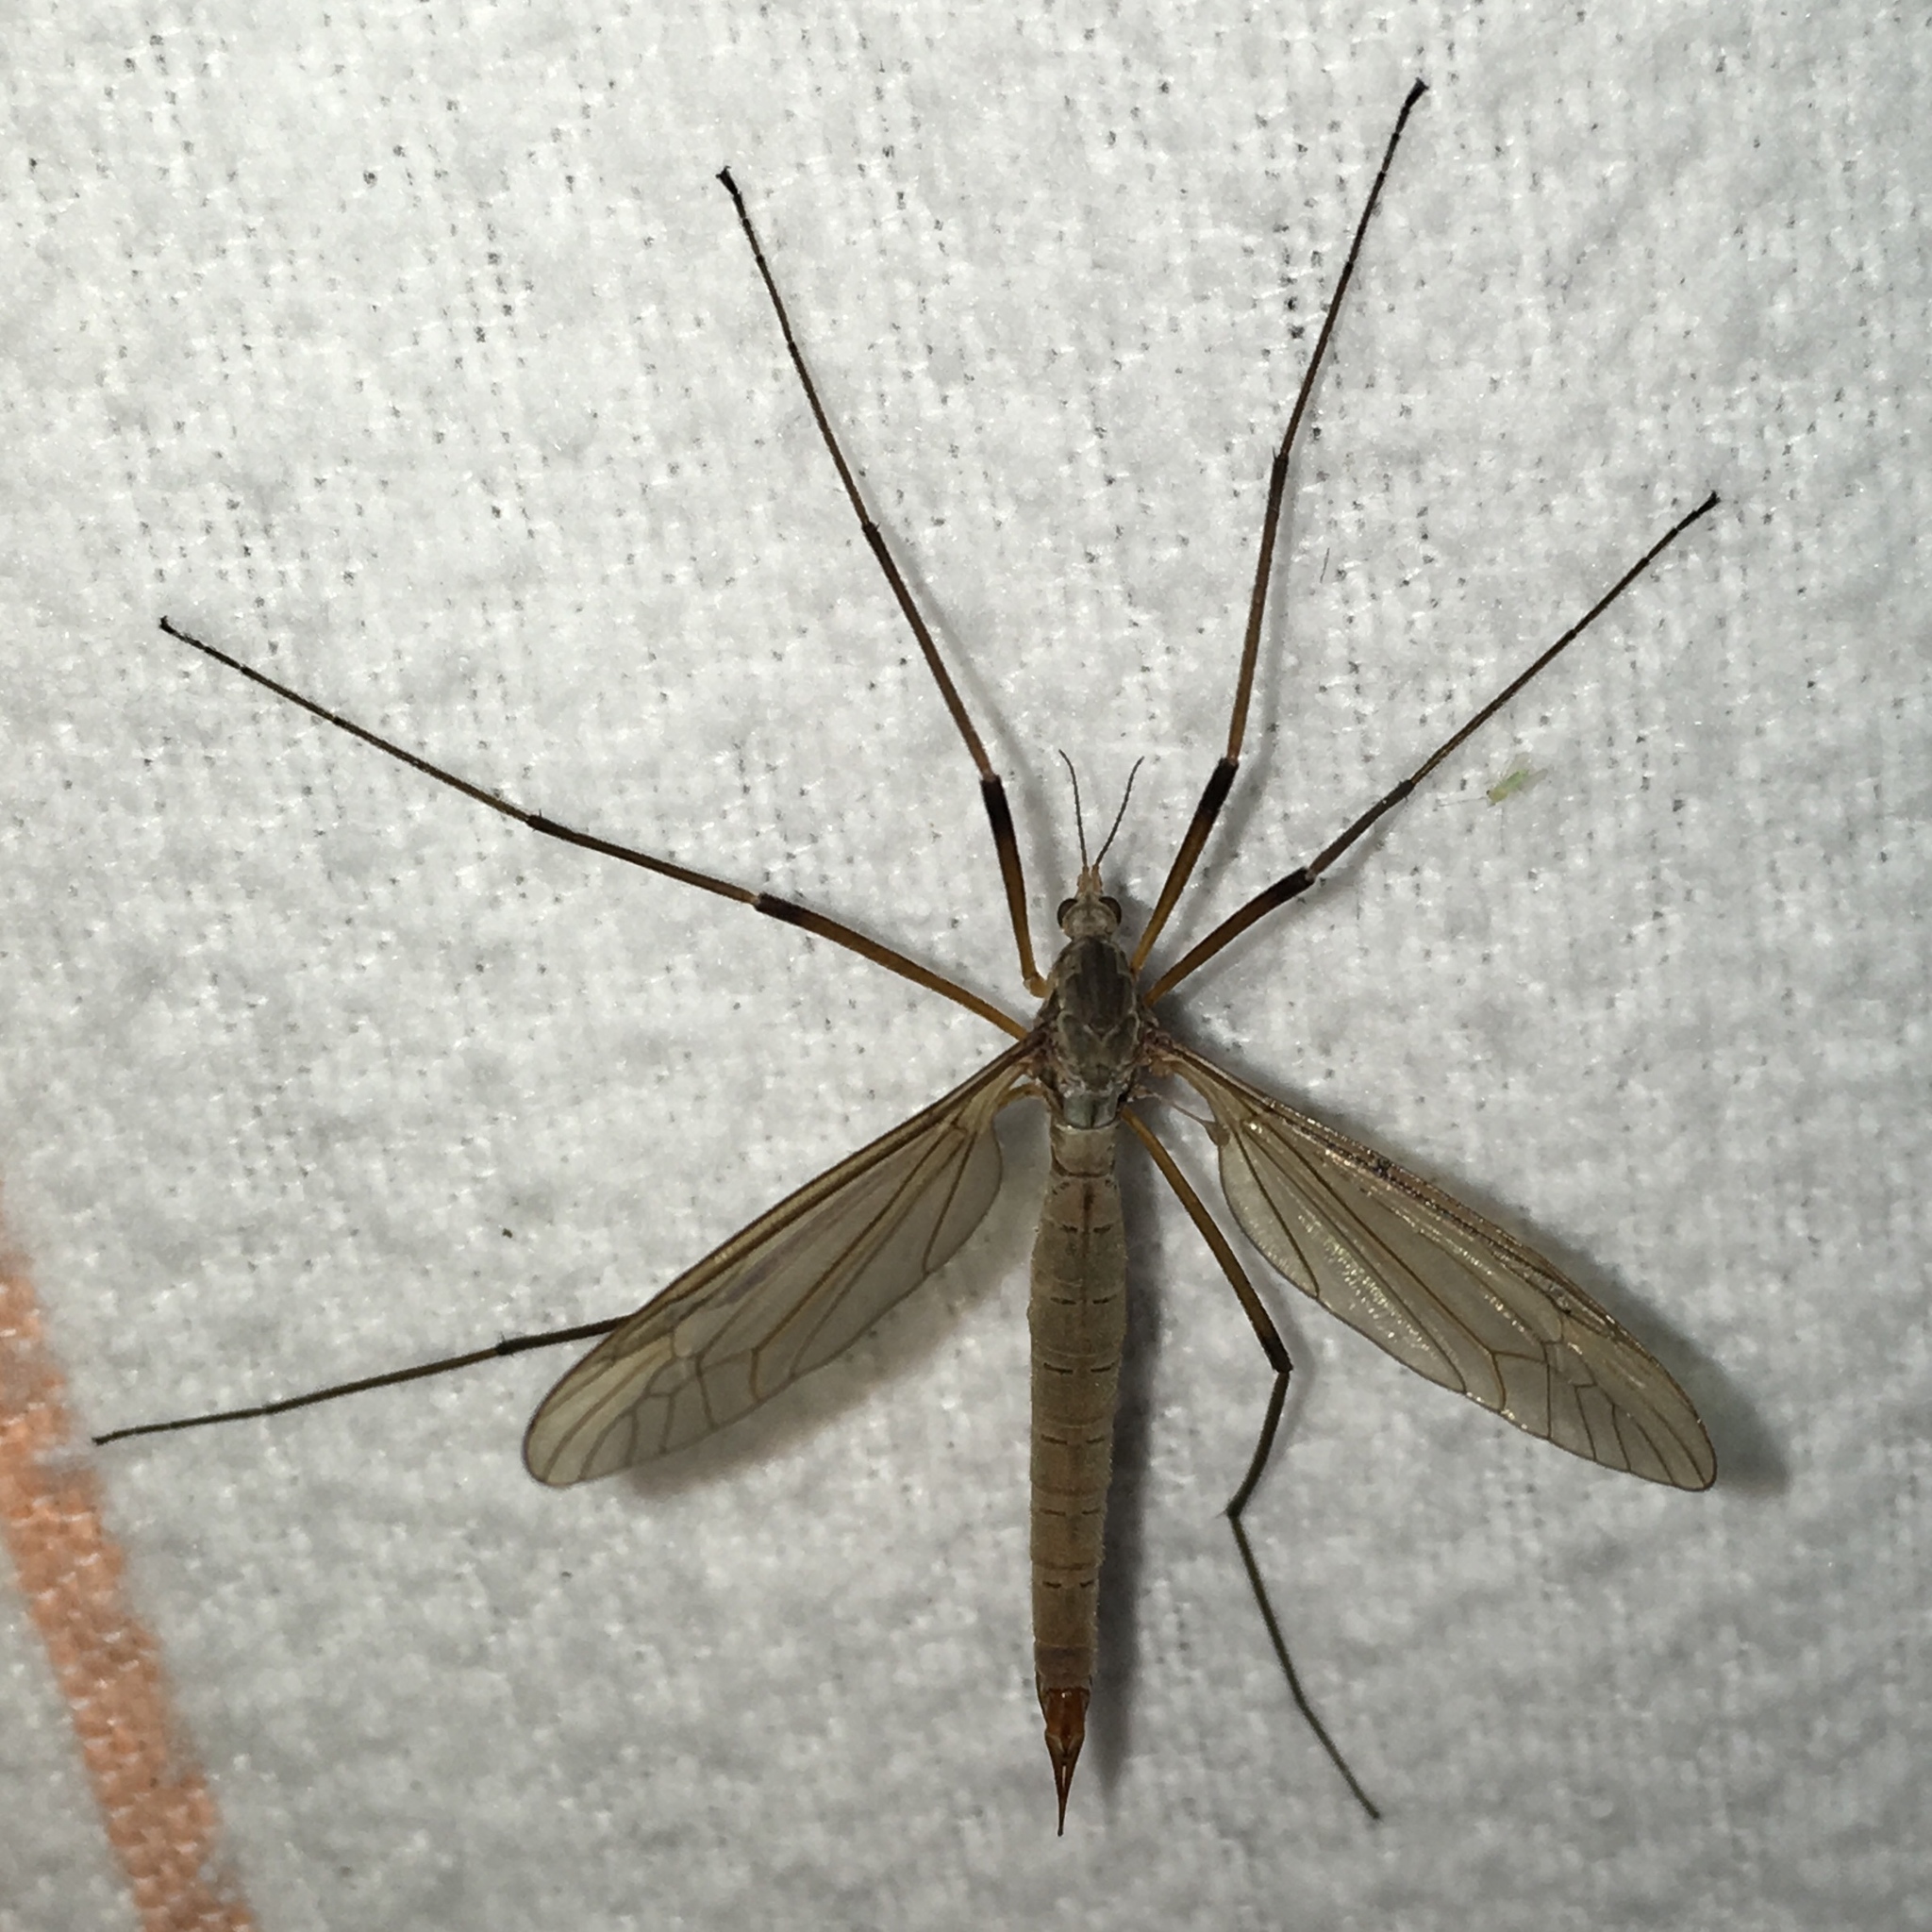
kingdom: Animalia
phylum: Arthropoda
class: Insecta
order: Diptera
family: Tipulidae
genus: Tipula
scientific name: Tipula paludosa
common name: European cranefly
